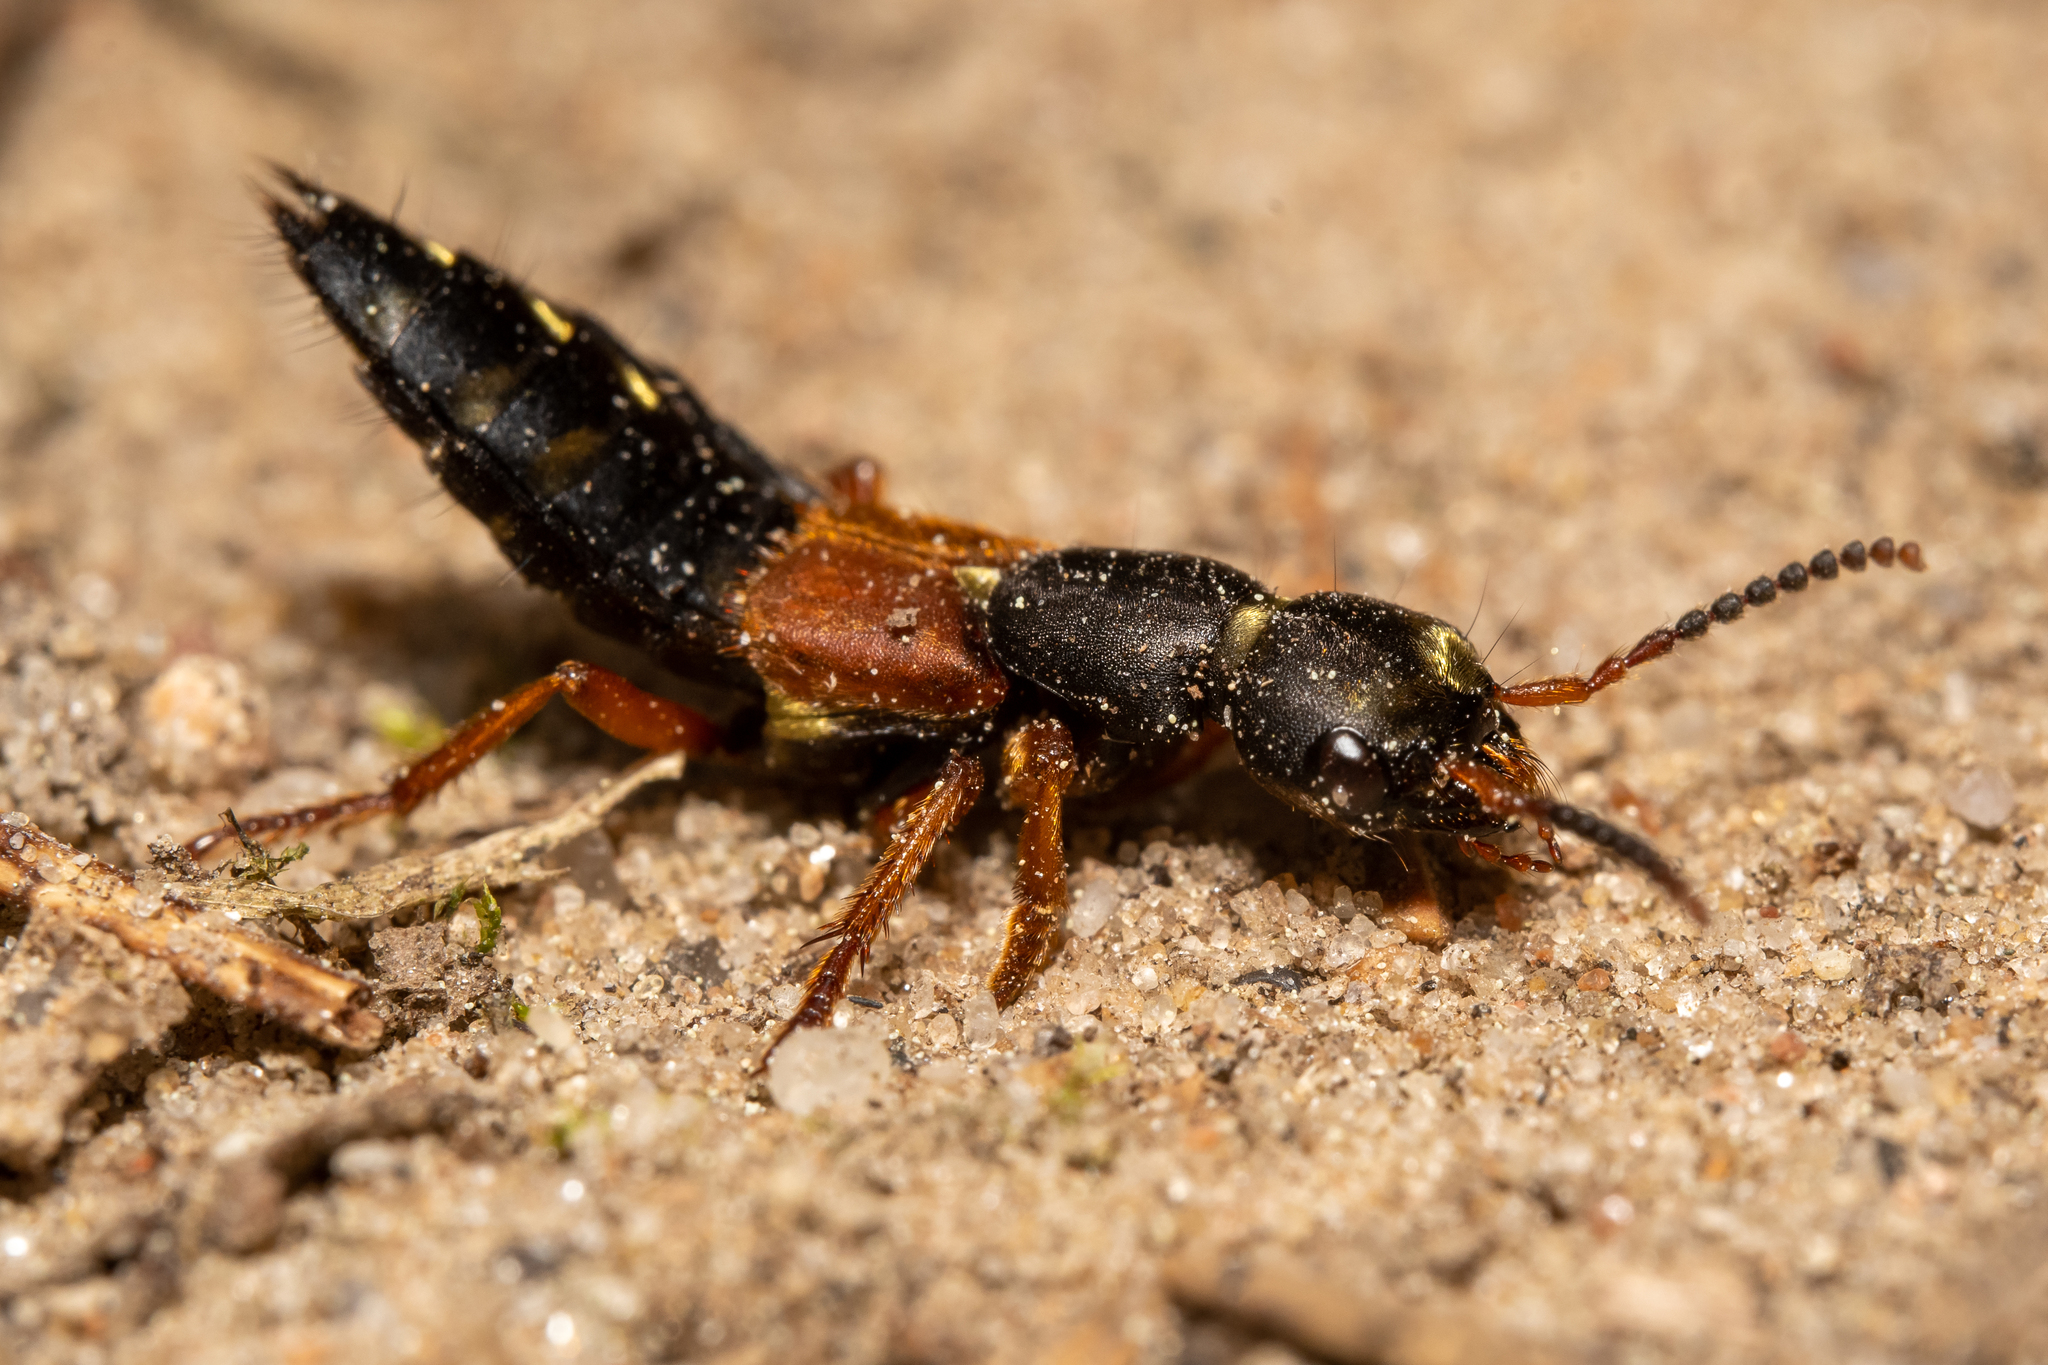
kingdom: Animalia
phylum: Arthropoda
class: Insecta
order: Coleoptera
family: Staphylinidae
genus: Staphylinus
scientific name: Staphylinus erythropterus
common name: Staph beetle
